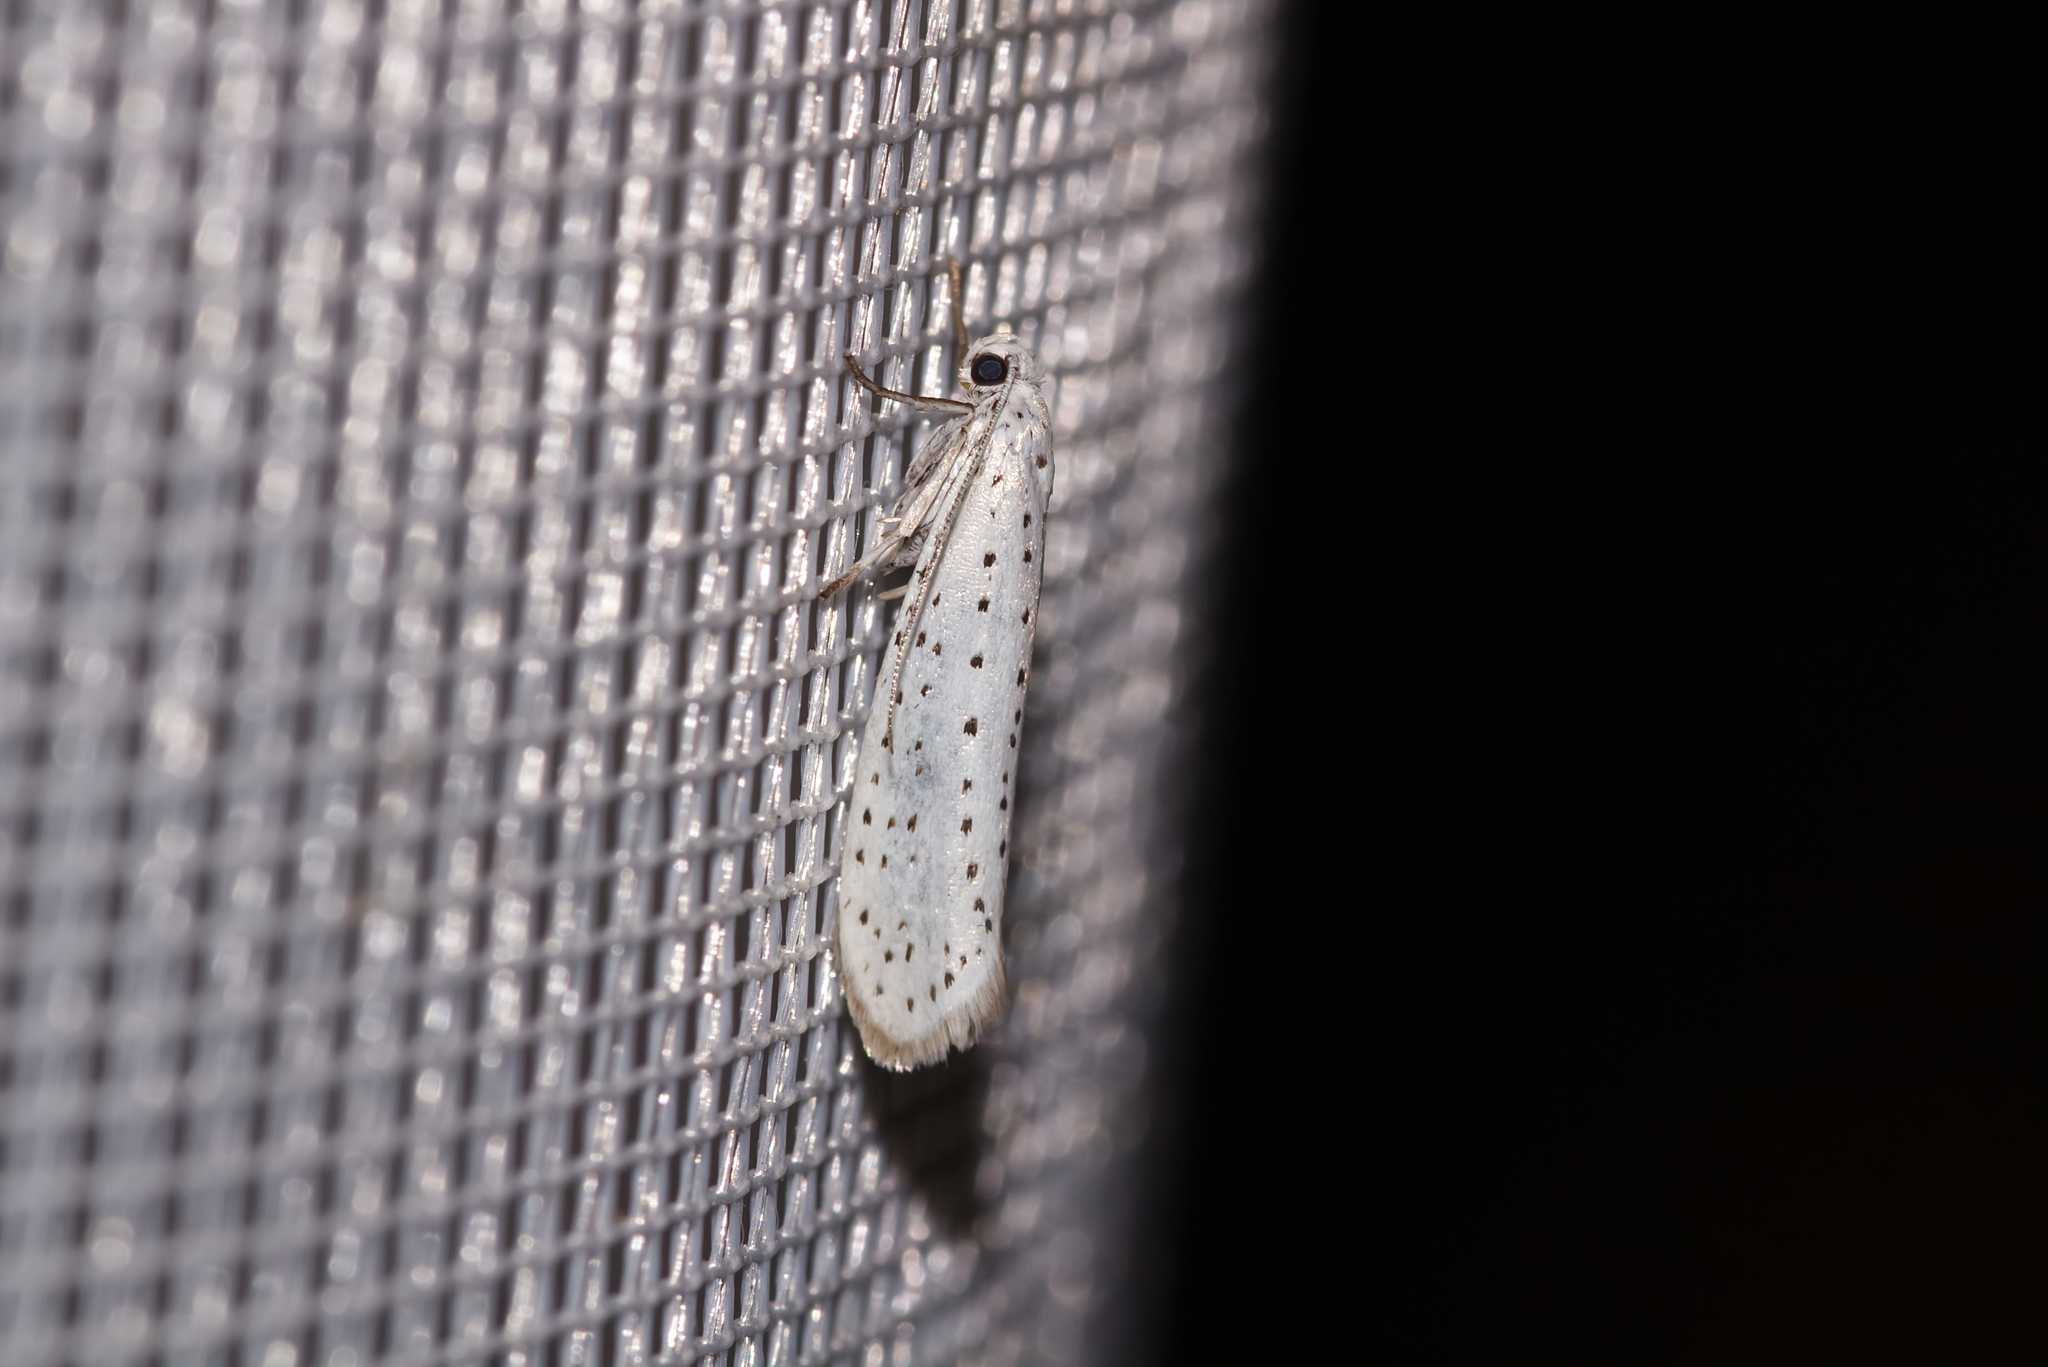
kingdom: Animalia
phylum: Arthropoda
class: Insecta
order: Lepidoptera
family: Yponomeutidae
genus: Yponomeuta
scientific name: Yponomeuta evonymella
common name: Bird-cherry ermine
